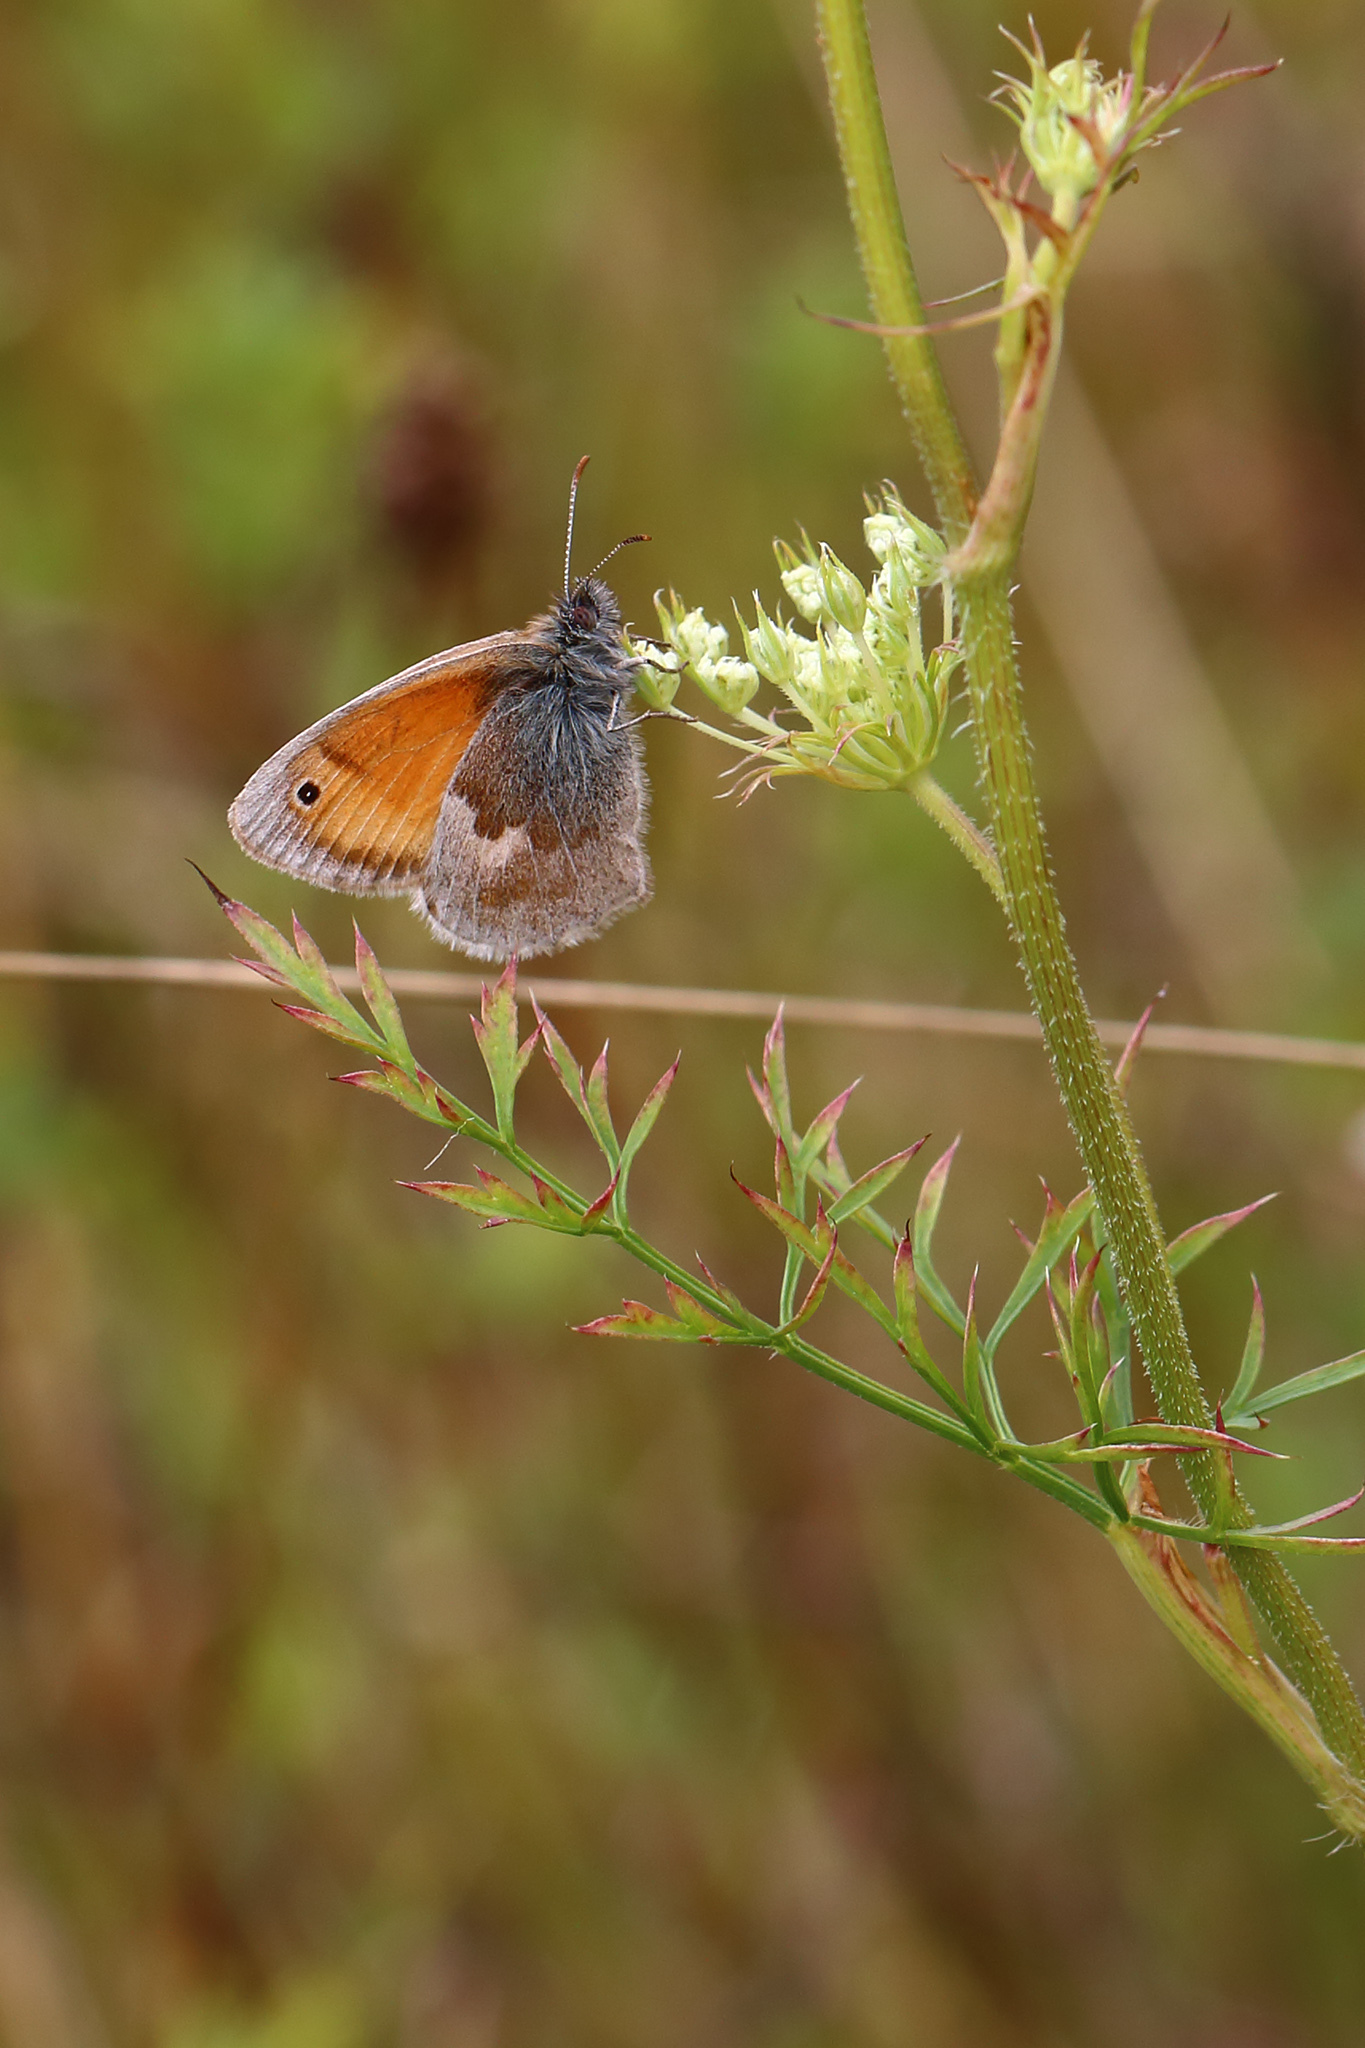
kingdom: Animalia
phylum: Arthropoda
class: Insecta
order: Lepidoptera
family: Nymphalidae
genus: Coenonympha
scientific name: Coenonympha pamphilus
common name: Small heath
